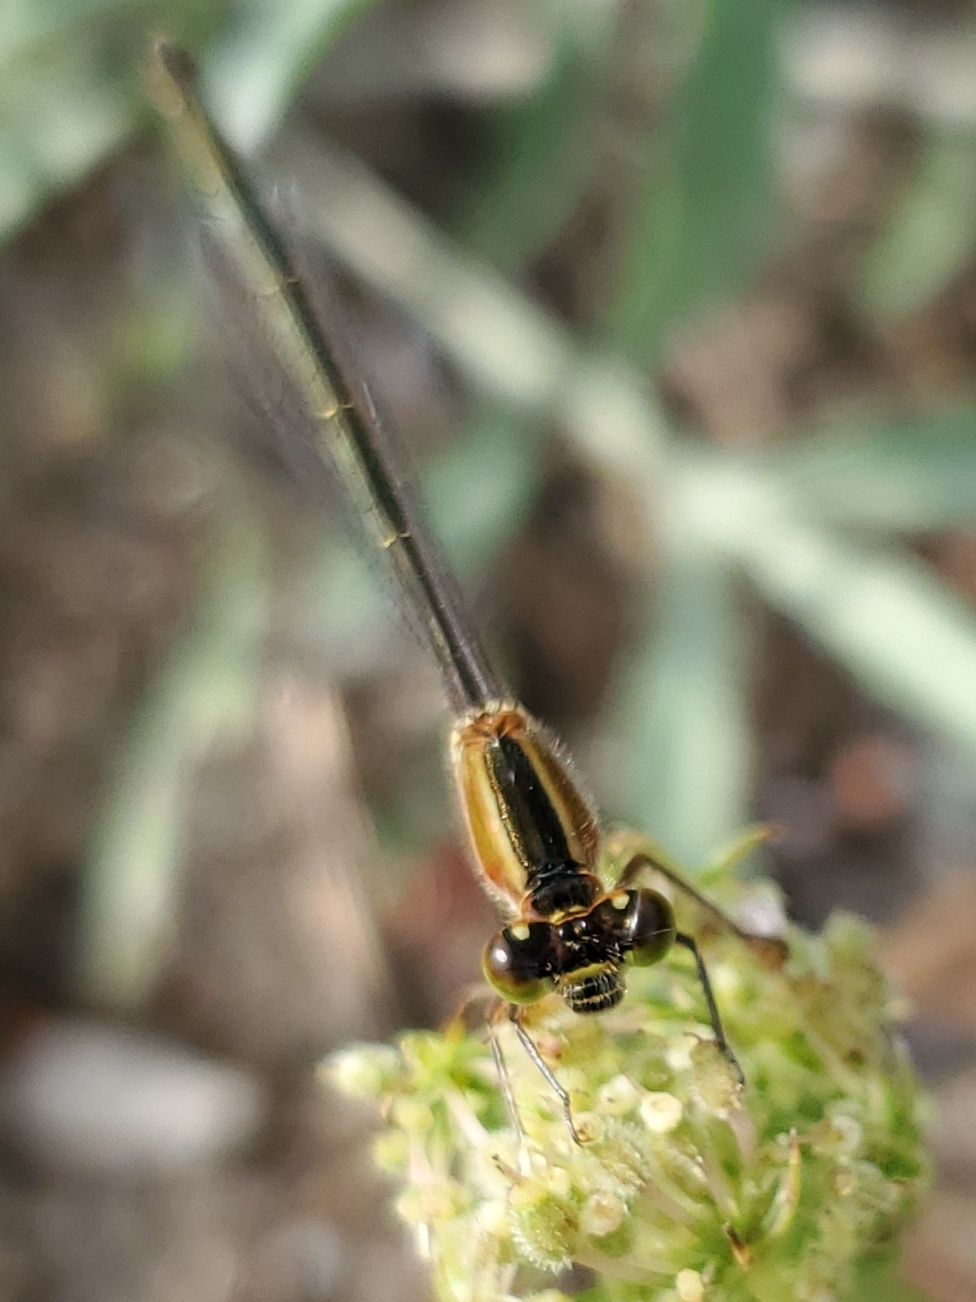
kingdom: Animalia
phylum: Arthropoda
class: Insecta
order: Odonata
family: Coenagrionidae
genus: Ischnura
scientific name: Ischnura ramburii
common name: Rambur's forktail
